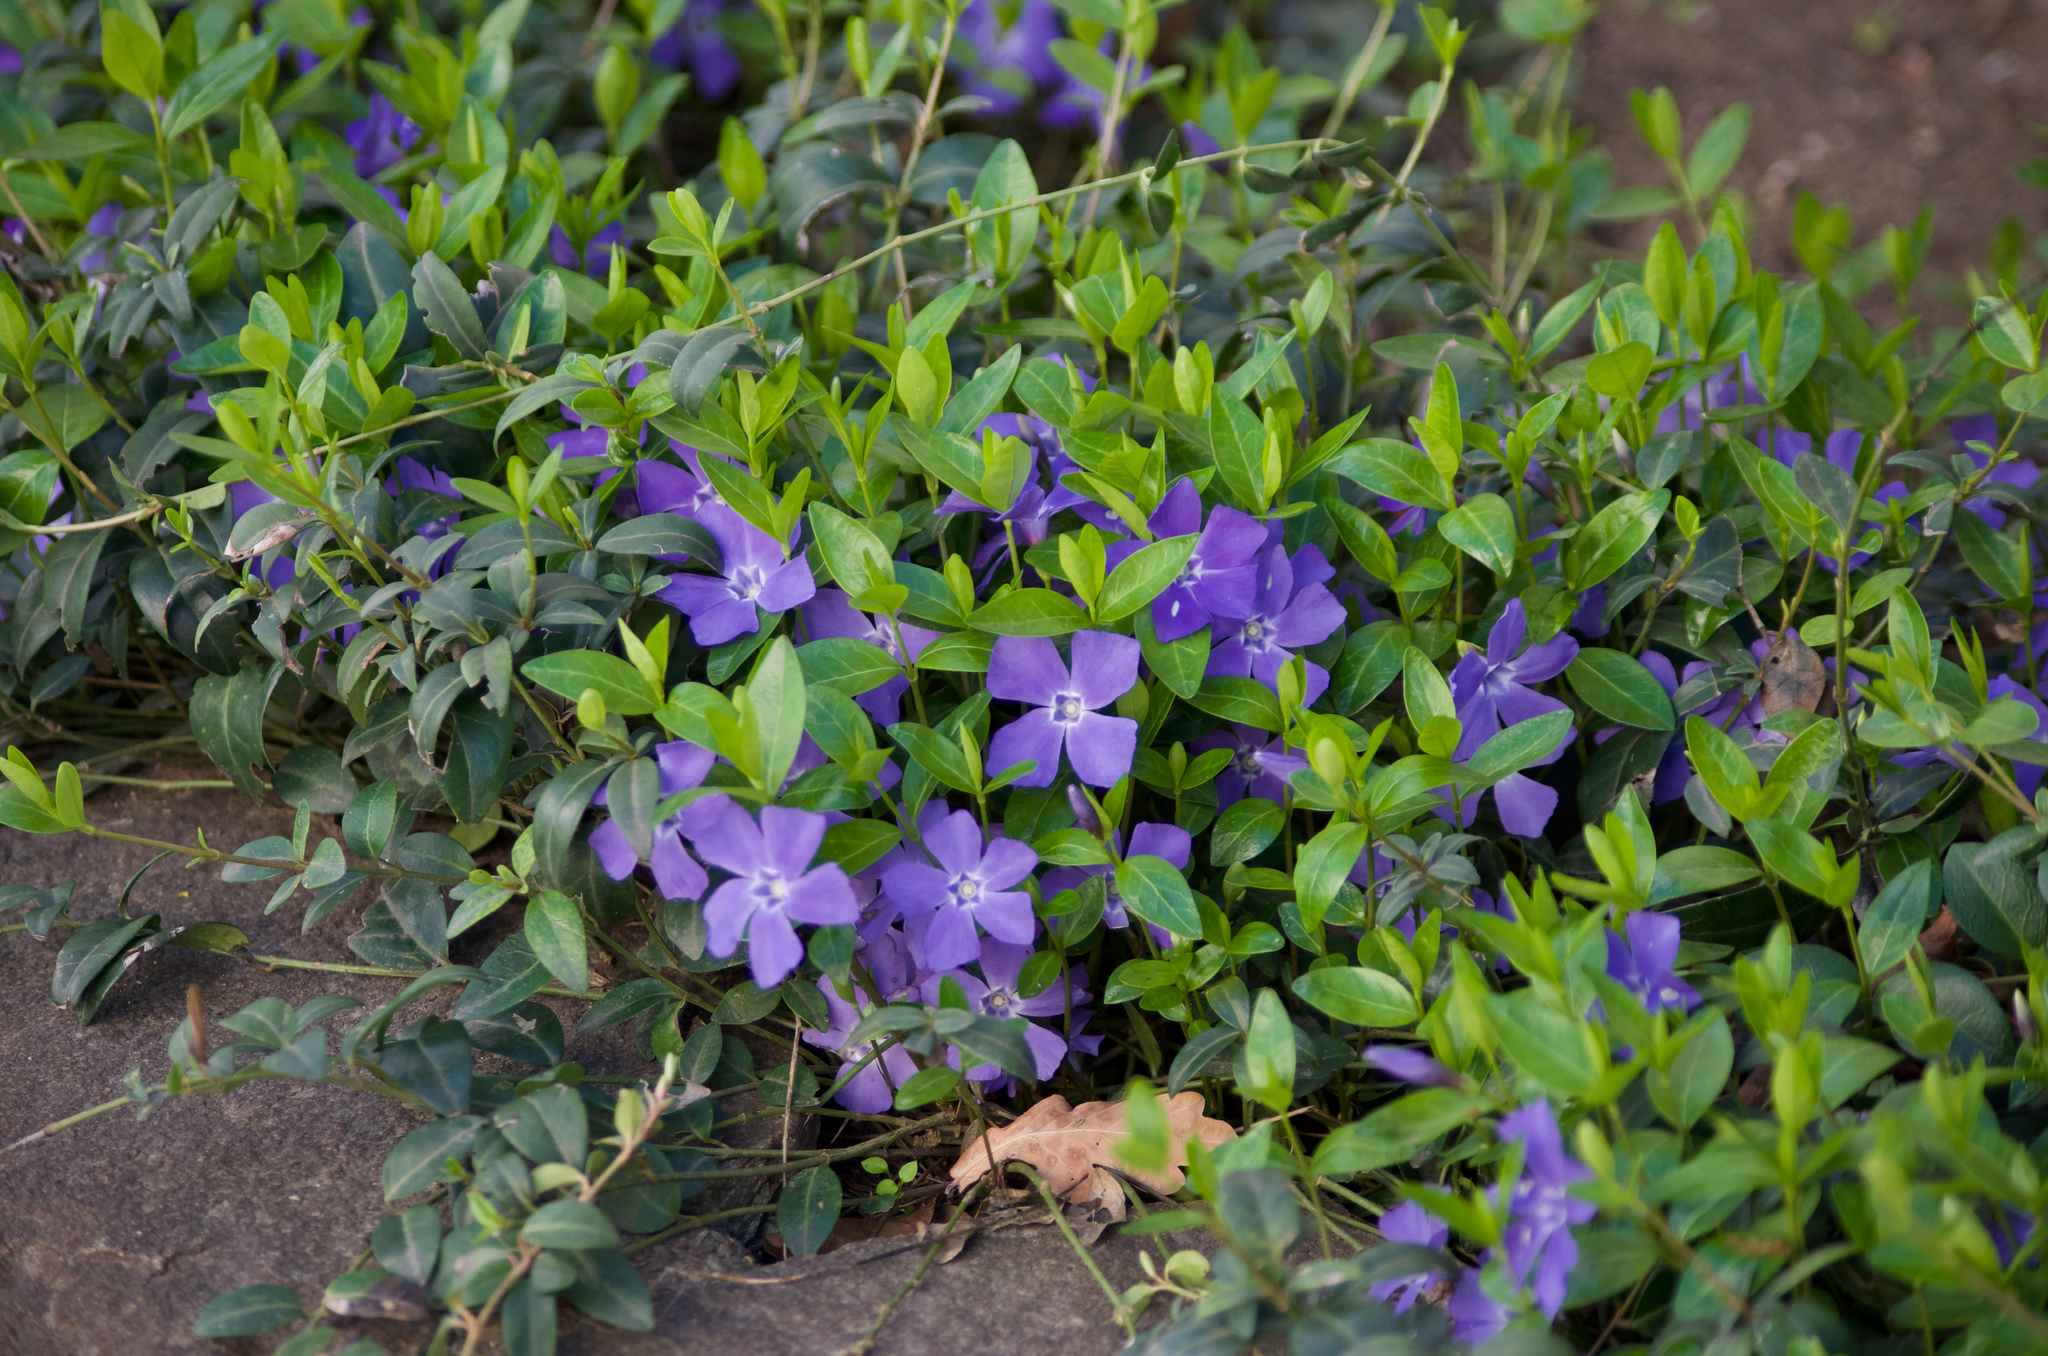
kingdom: Plantae
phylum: Tracheophyta
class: Magnoliopsida
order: Gentianales
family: Apocynaceae
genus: Vinca
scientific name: Vinca minor
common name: Lesser periwinkle
